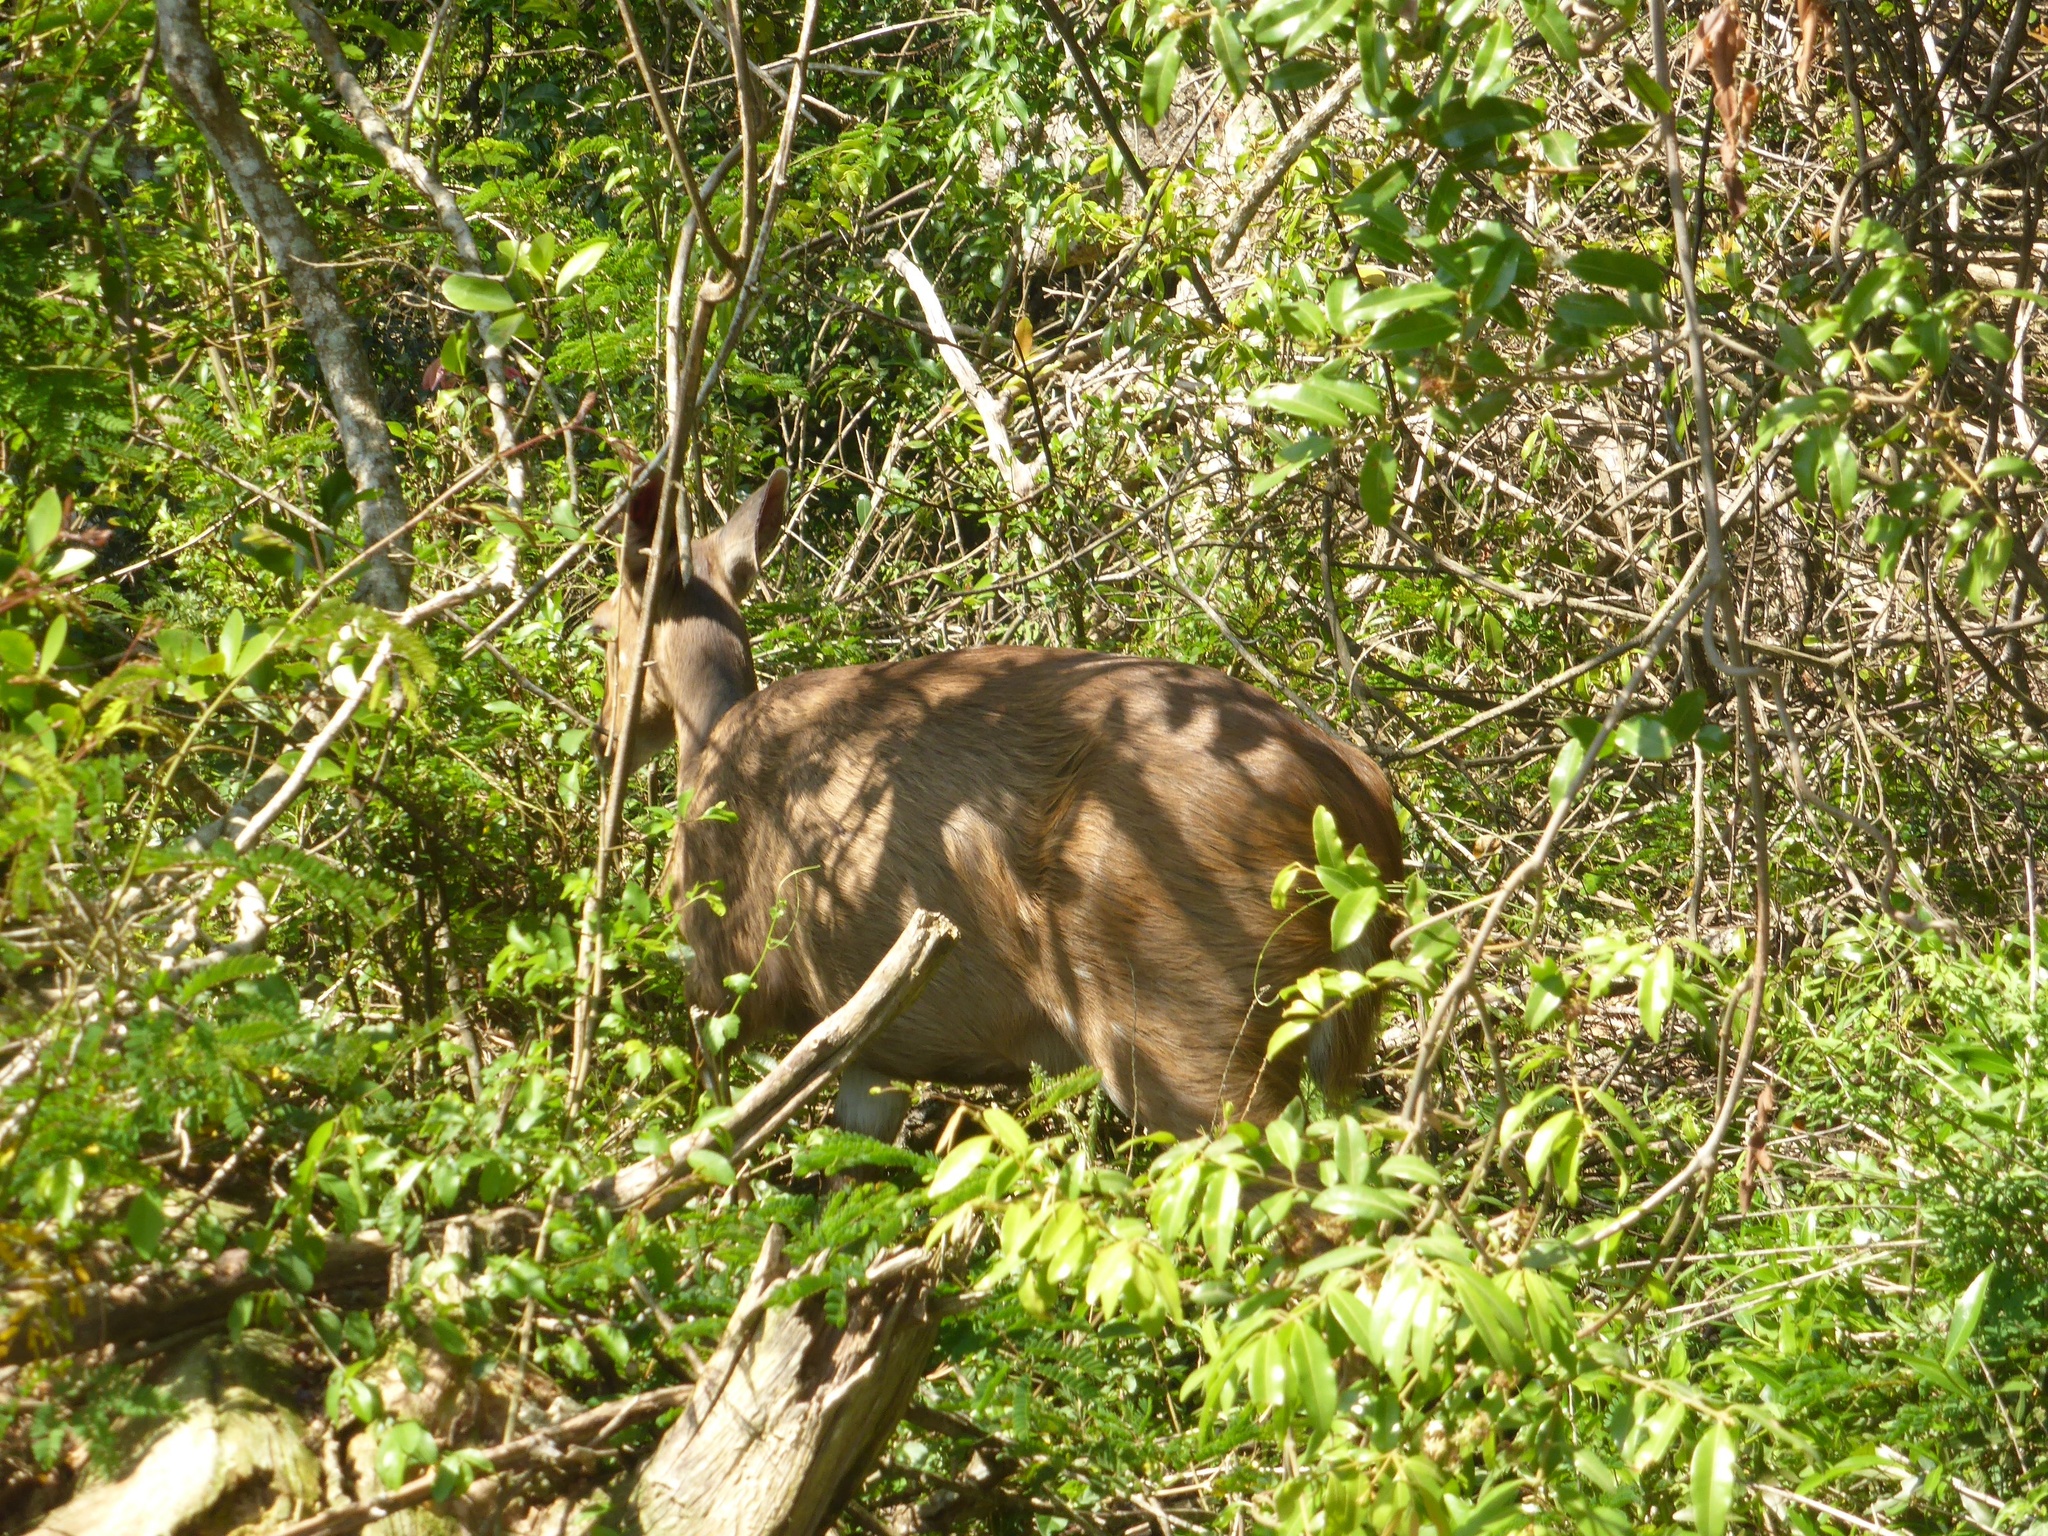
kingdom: Animalia
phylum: Chordata
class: Mammalia
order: Artiodactyla
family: Bovidae
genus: Tragelaphus
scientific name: Tragelaphus scriptus
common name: Bushbuck
